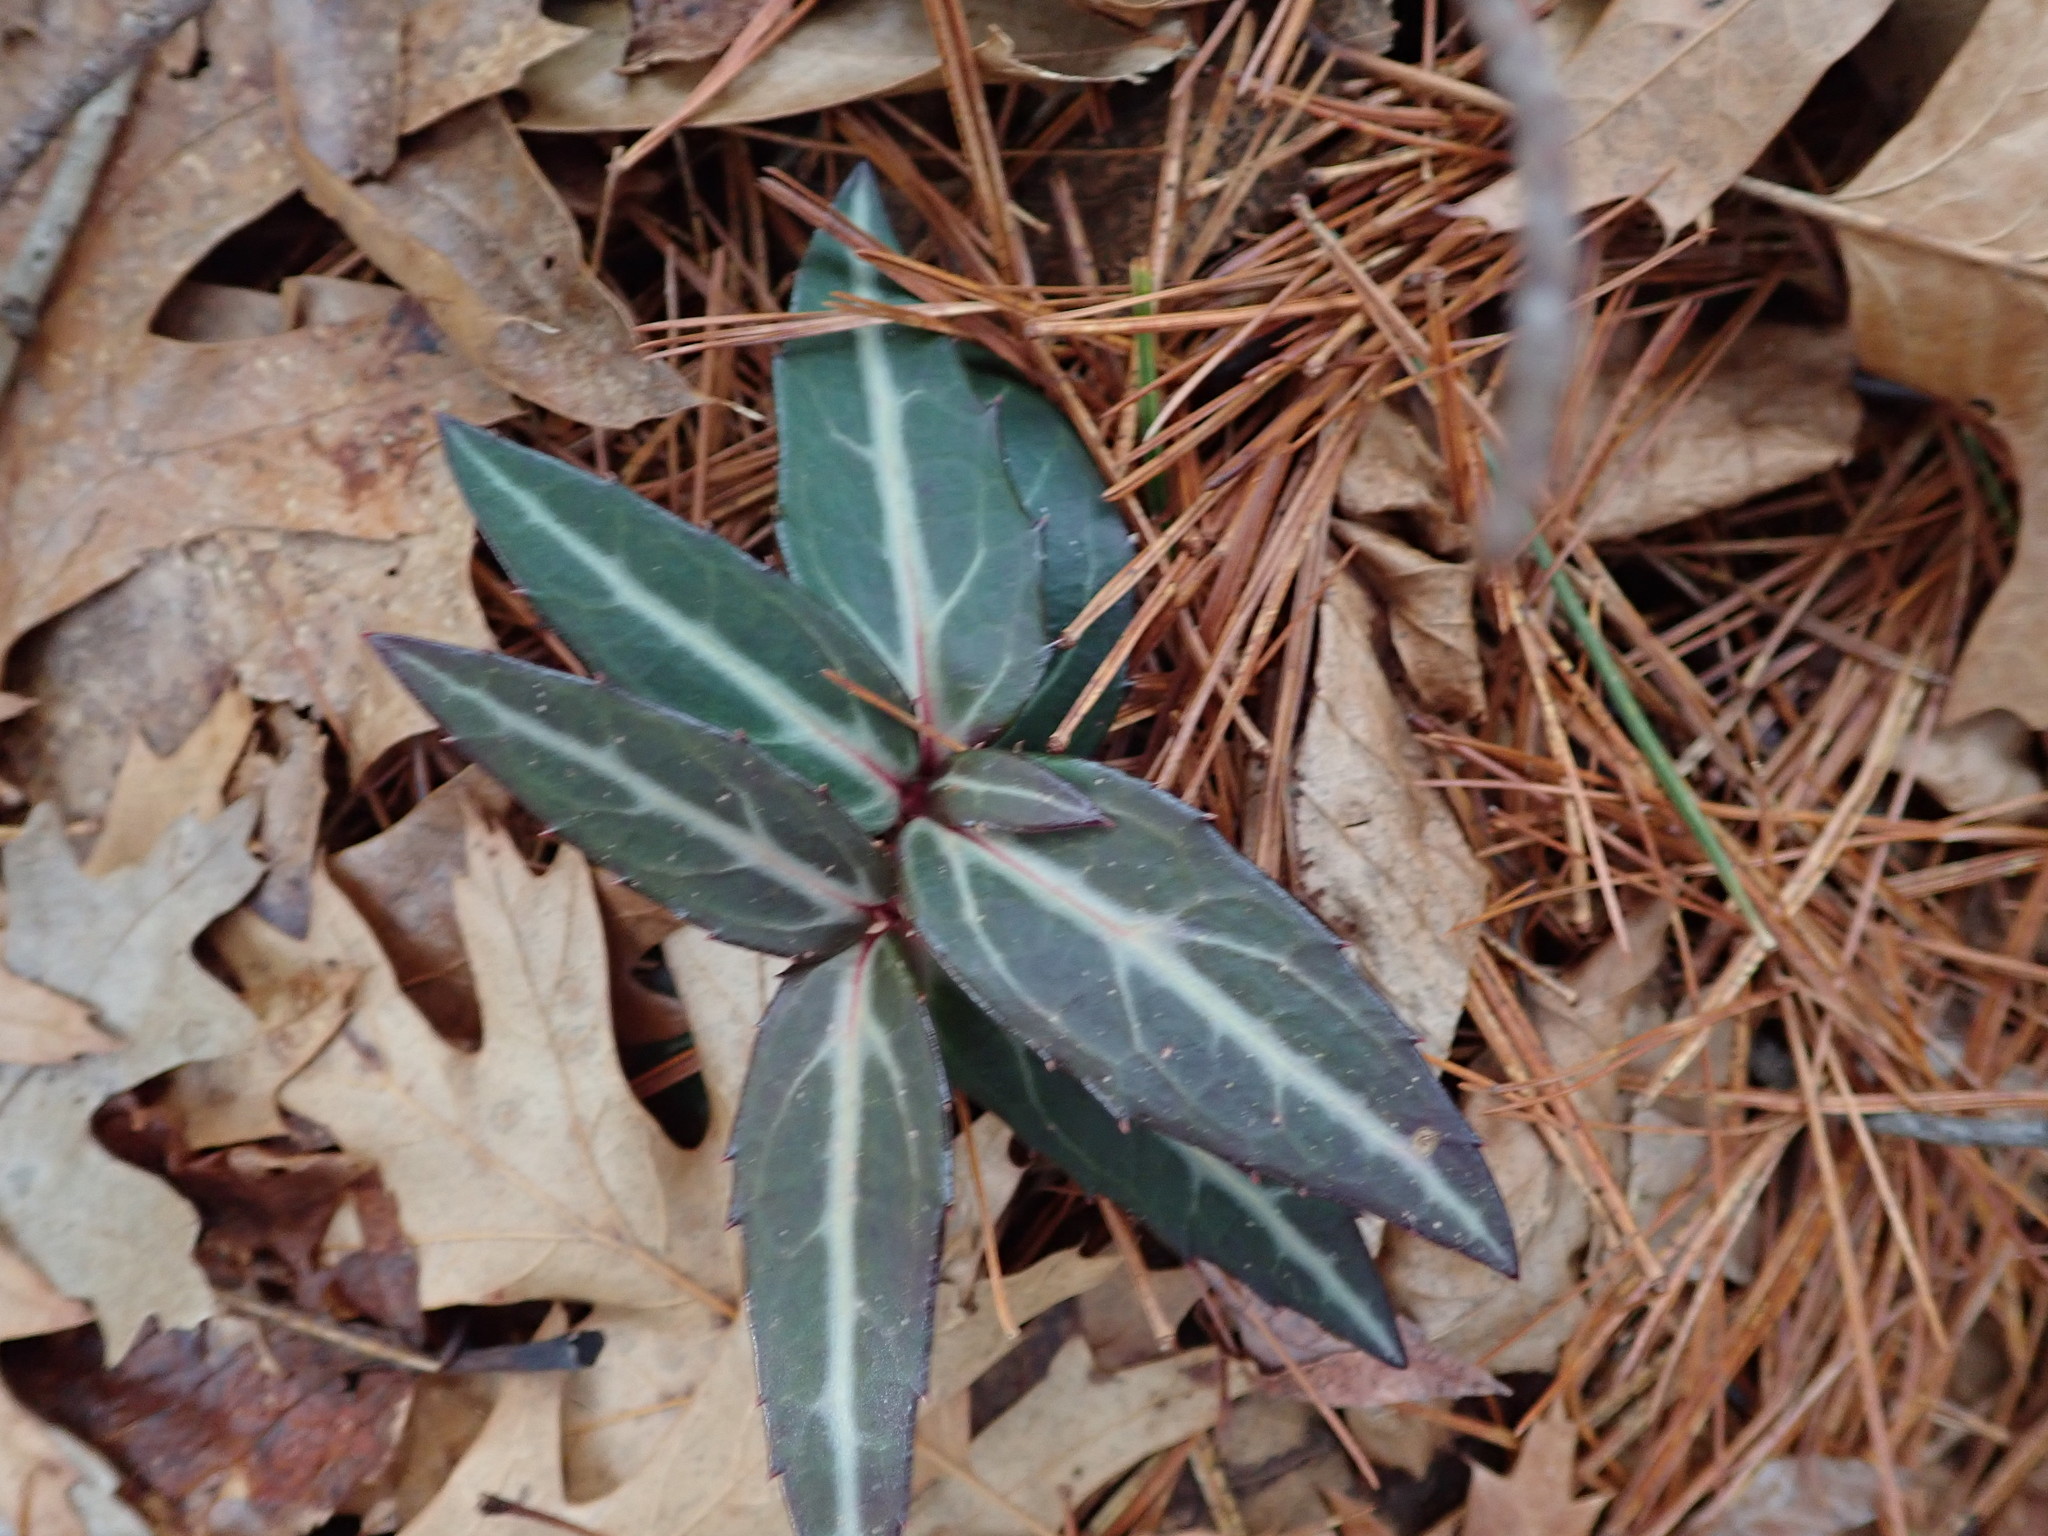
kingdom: Plantae
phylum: Tracheophyta
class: Magnoliopsida
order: Ericales
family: Ericaceae
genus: Chimaphila
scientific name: Chimaphila maculata
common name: Spotted pipsissewa
